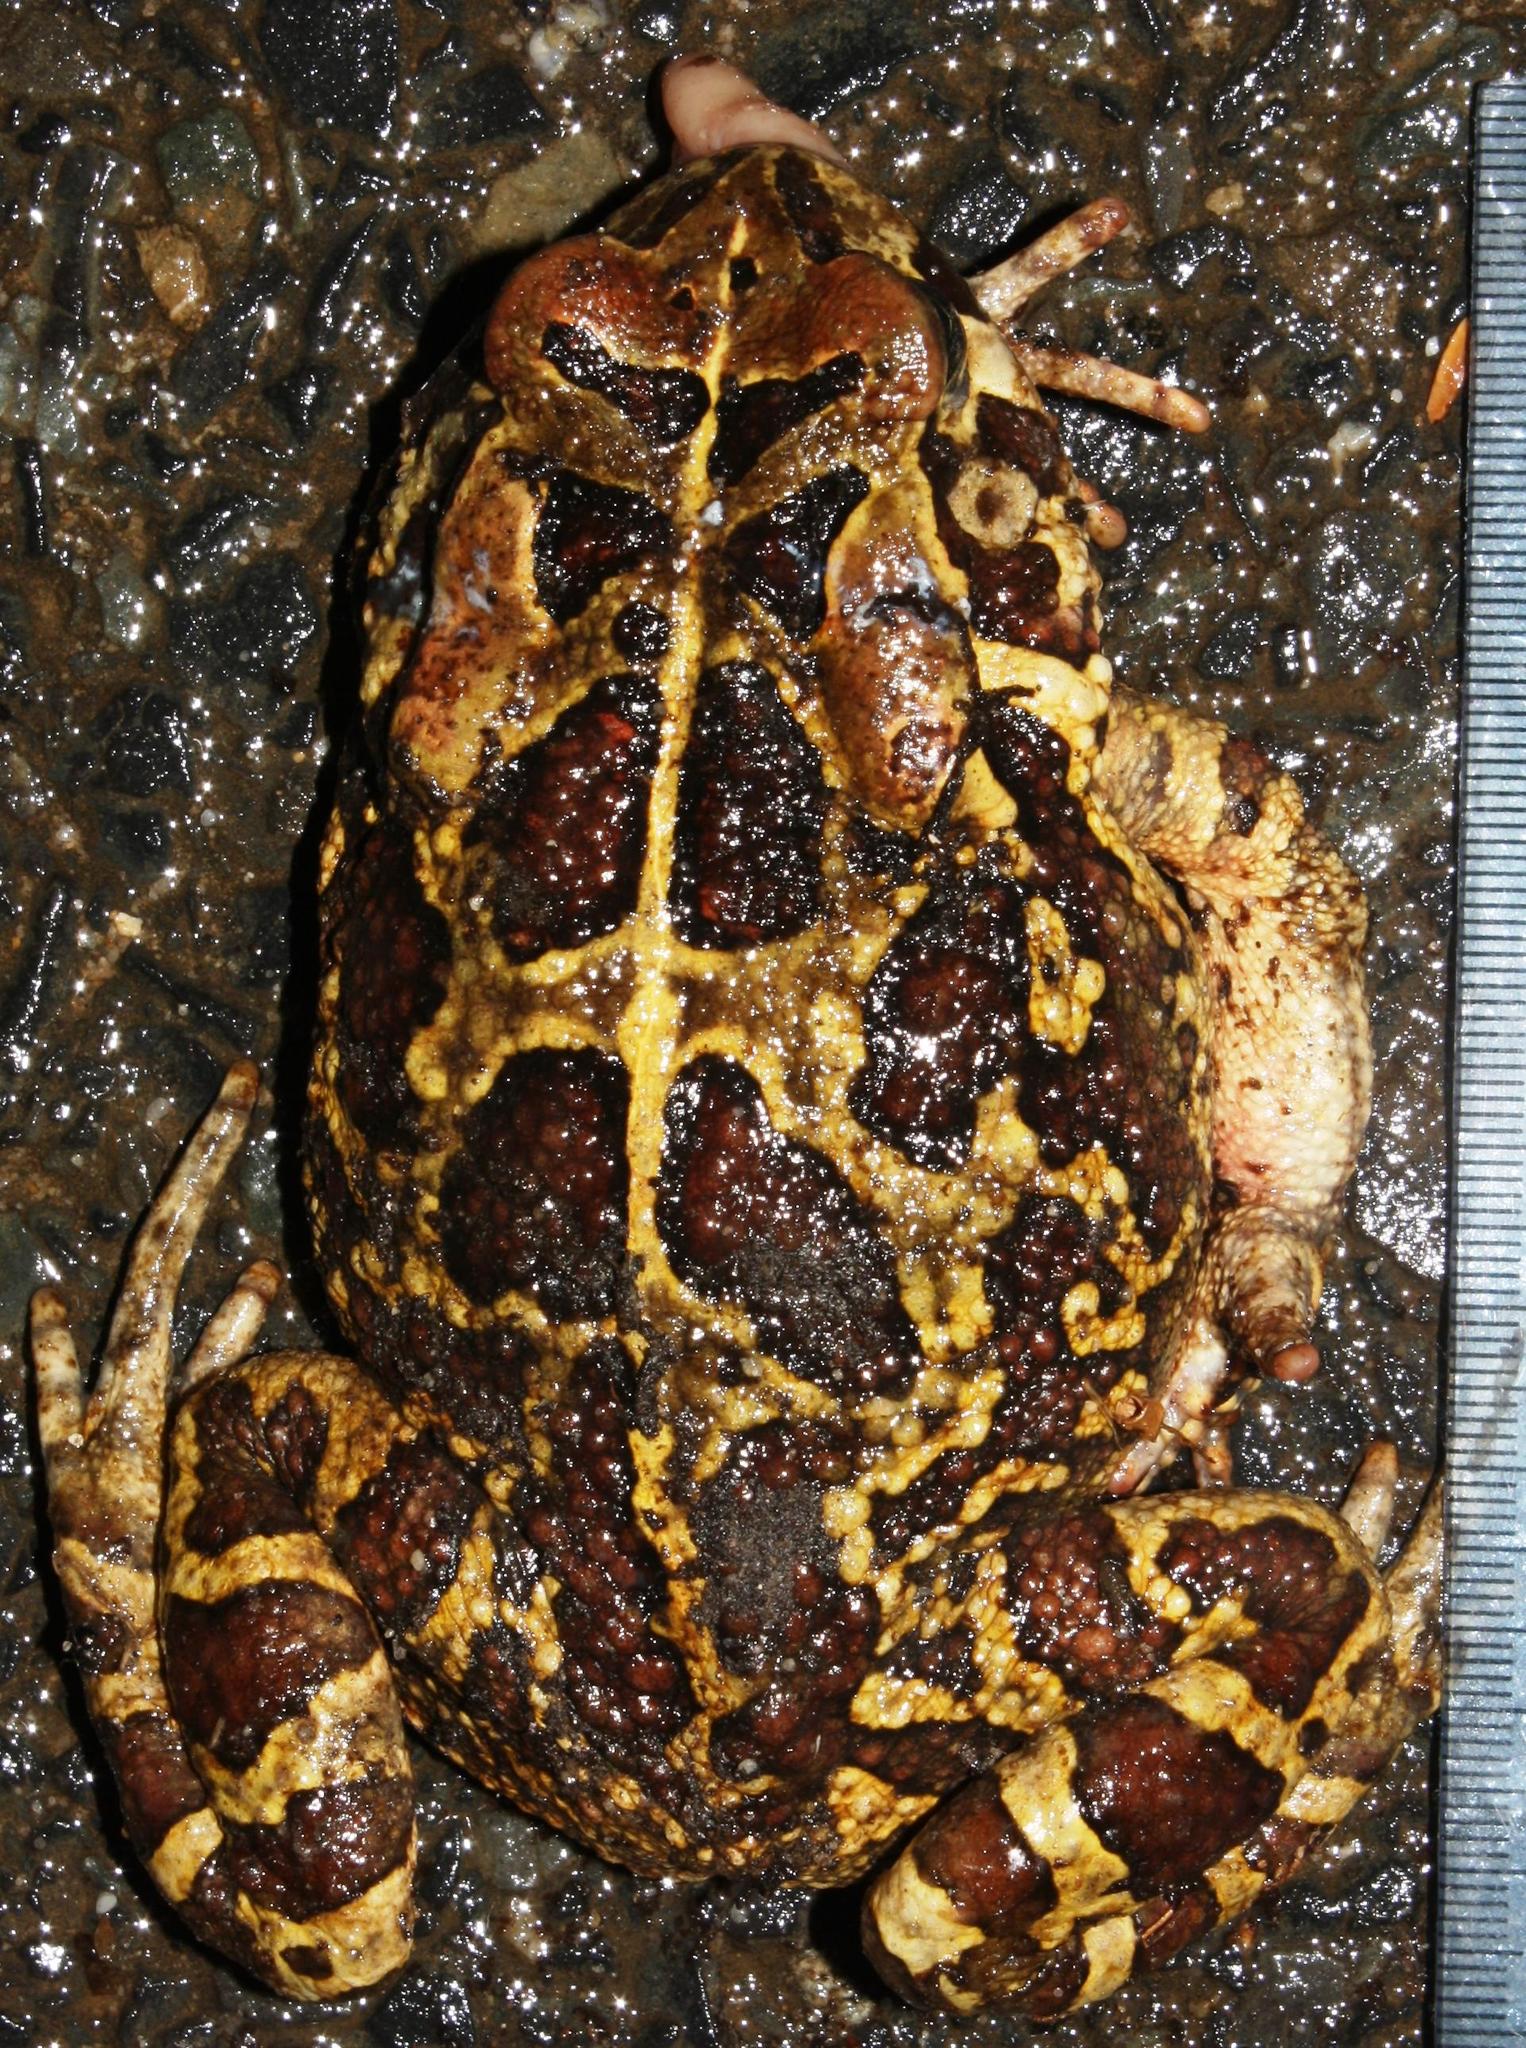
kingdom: Animalia
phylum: Chordata
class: Amphibia
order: Anura
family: Bufonidae
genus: Sclerophrys
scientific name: Sclerophrys pantherina
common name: Panther toad
